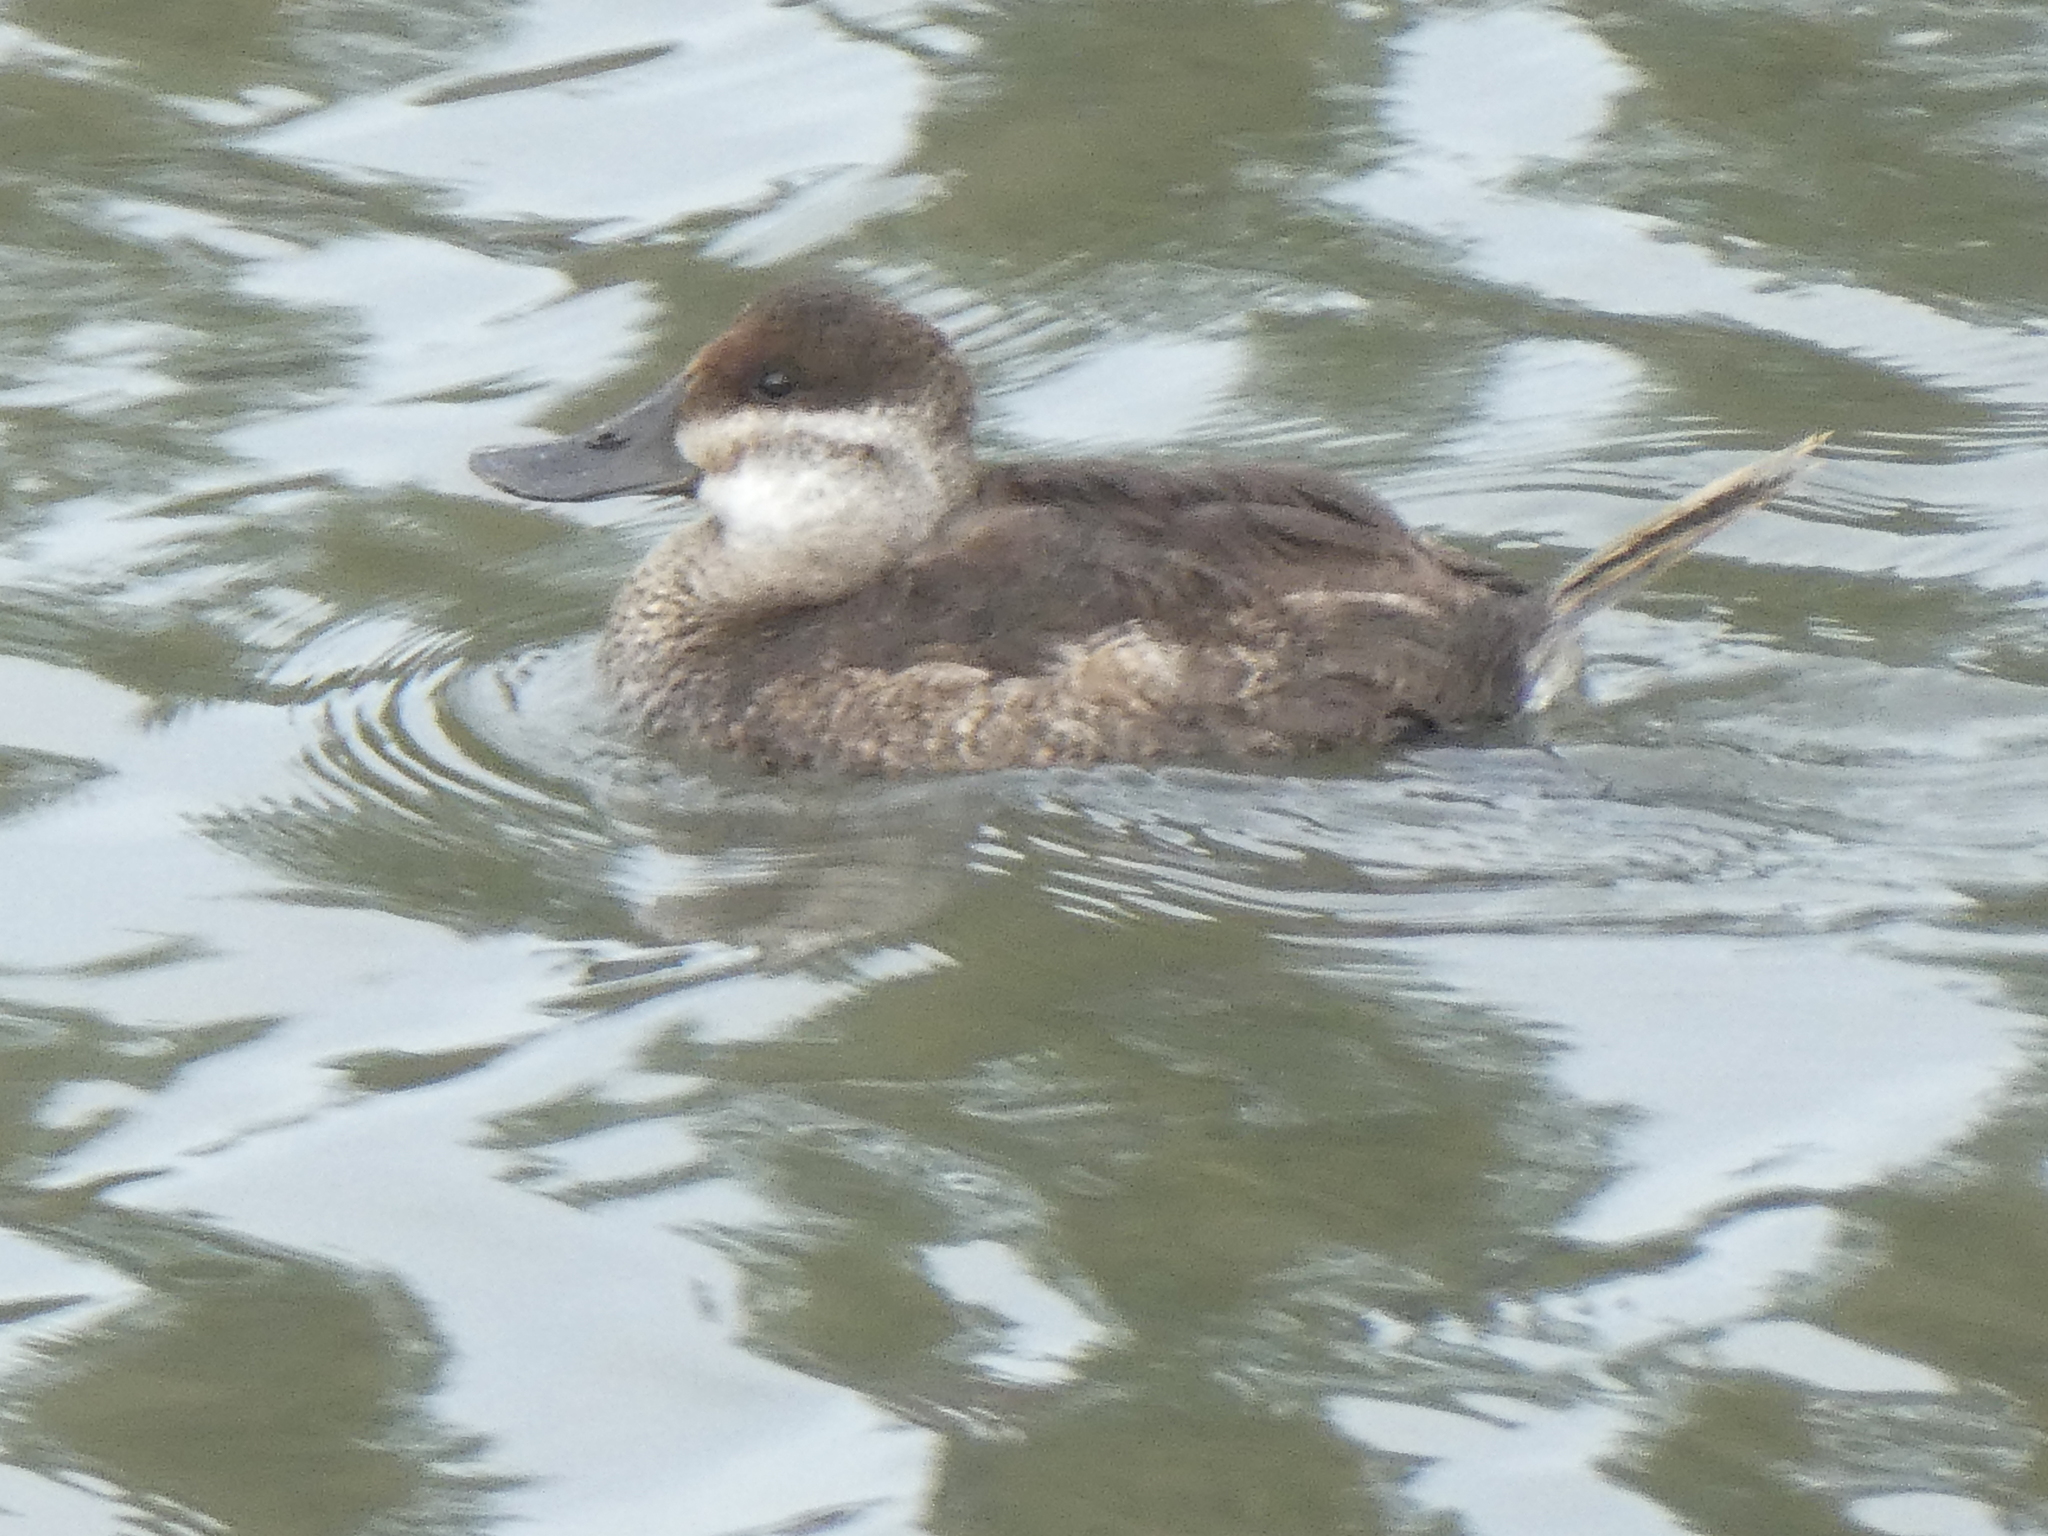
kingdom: Animalia
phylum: Chordata
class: Aves
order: Anseriformes
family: Anatidae
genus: Oxyura
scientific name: Oxyura jamaicensis
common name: Ruddy duck
